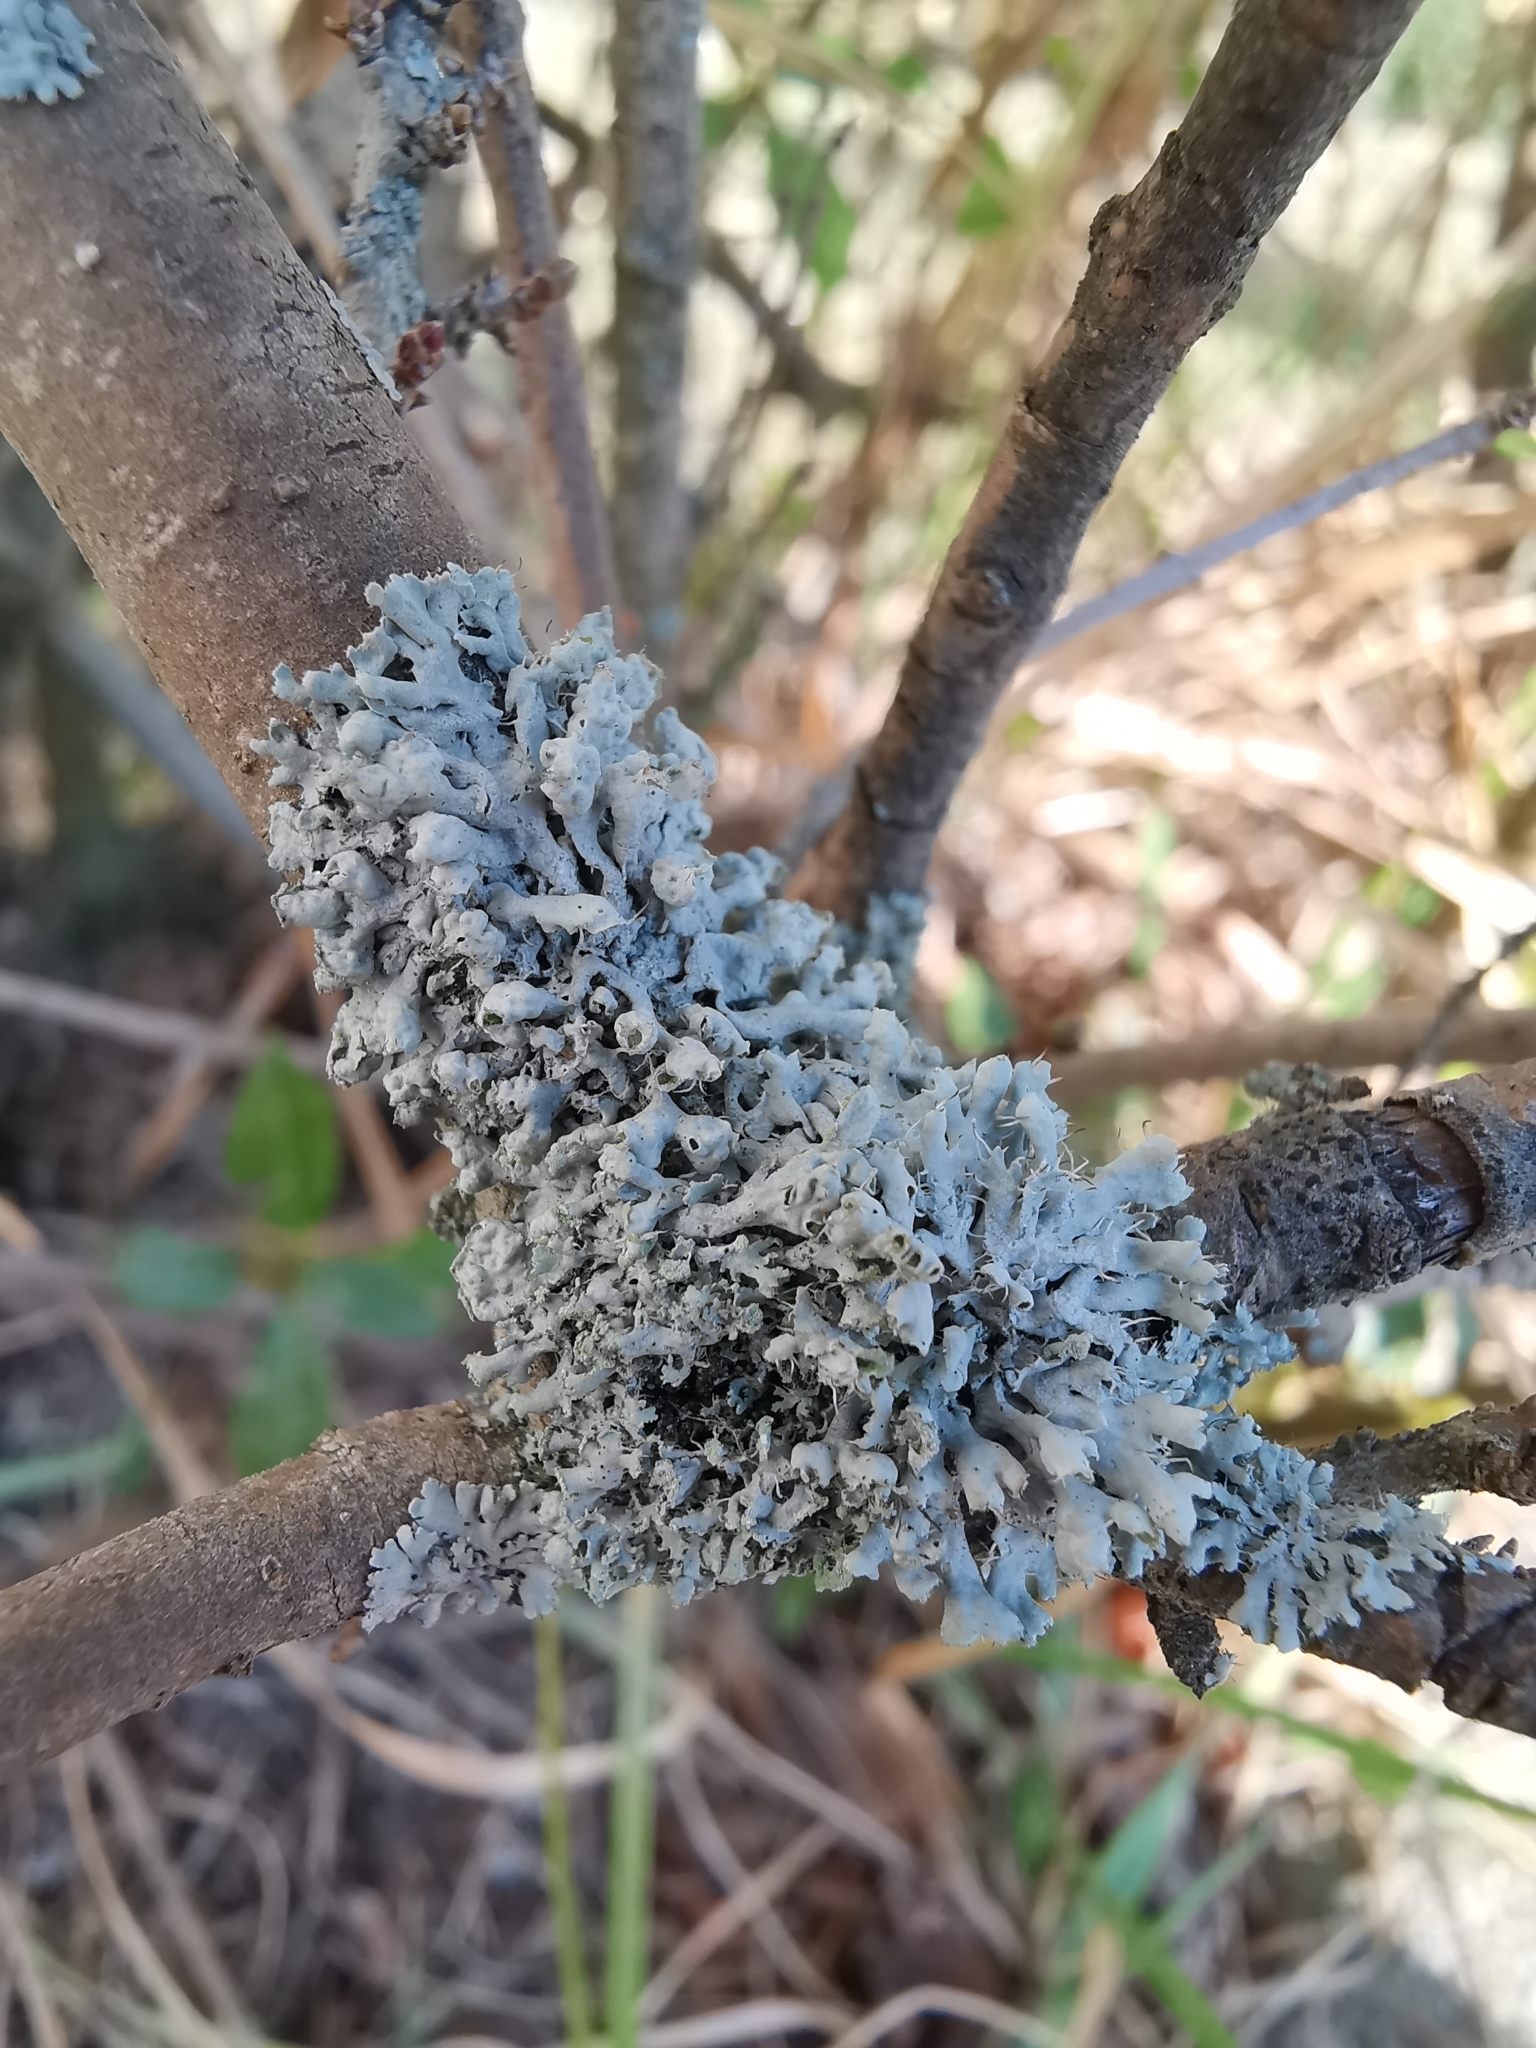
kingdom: Fungi
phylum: Ascomycota
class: Lecanoromycetes
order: Caliciales
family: Physciaceae
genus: Physcia
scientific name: Physcia adscendens
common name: Hooded rosette lichen
